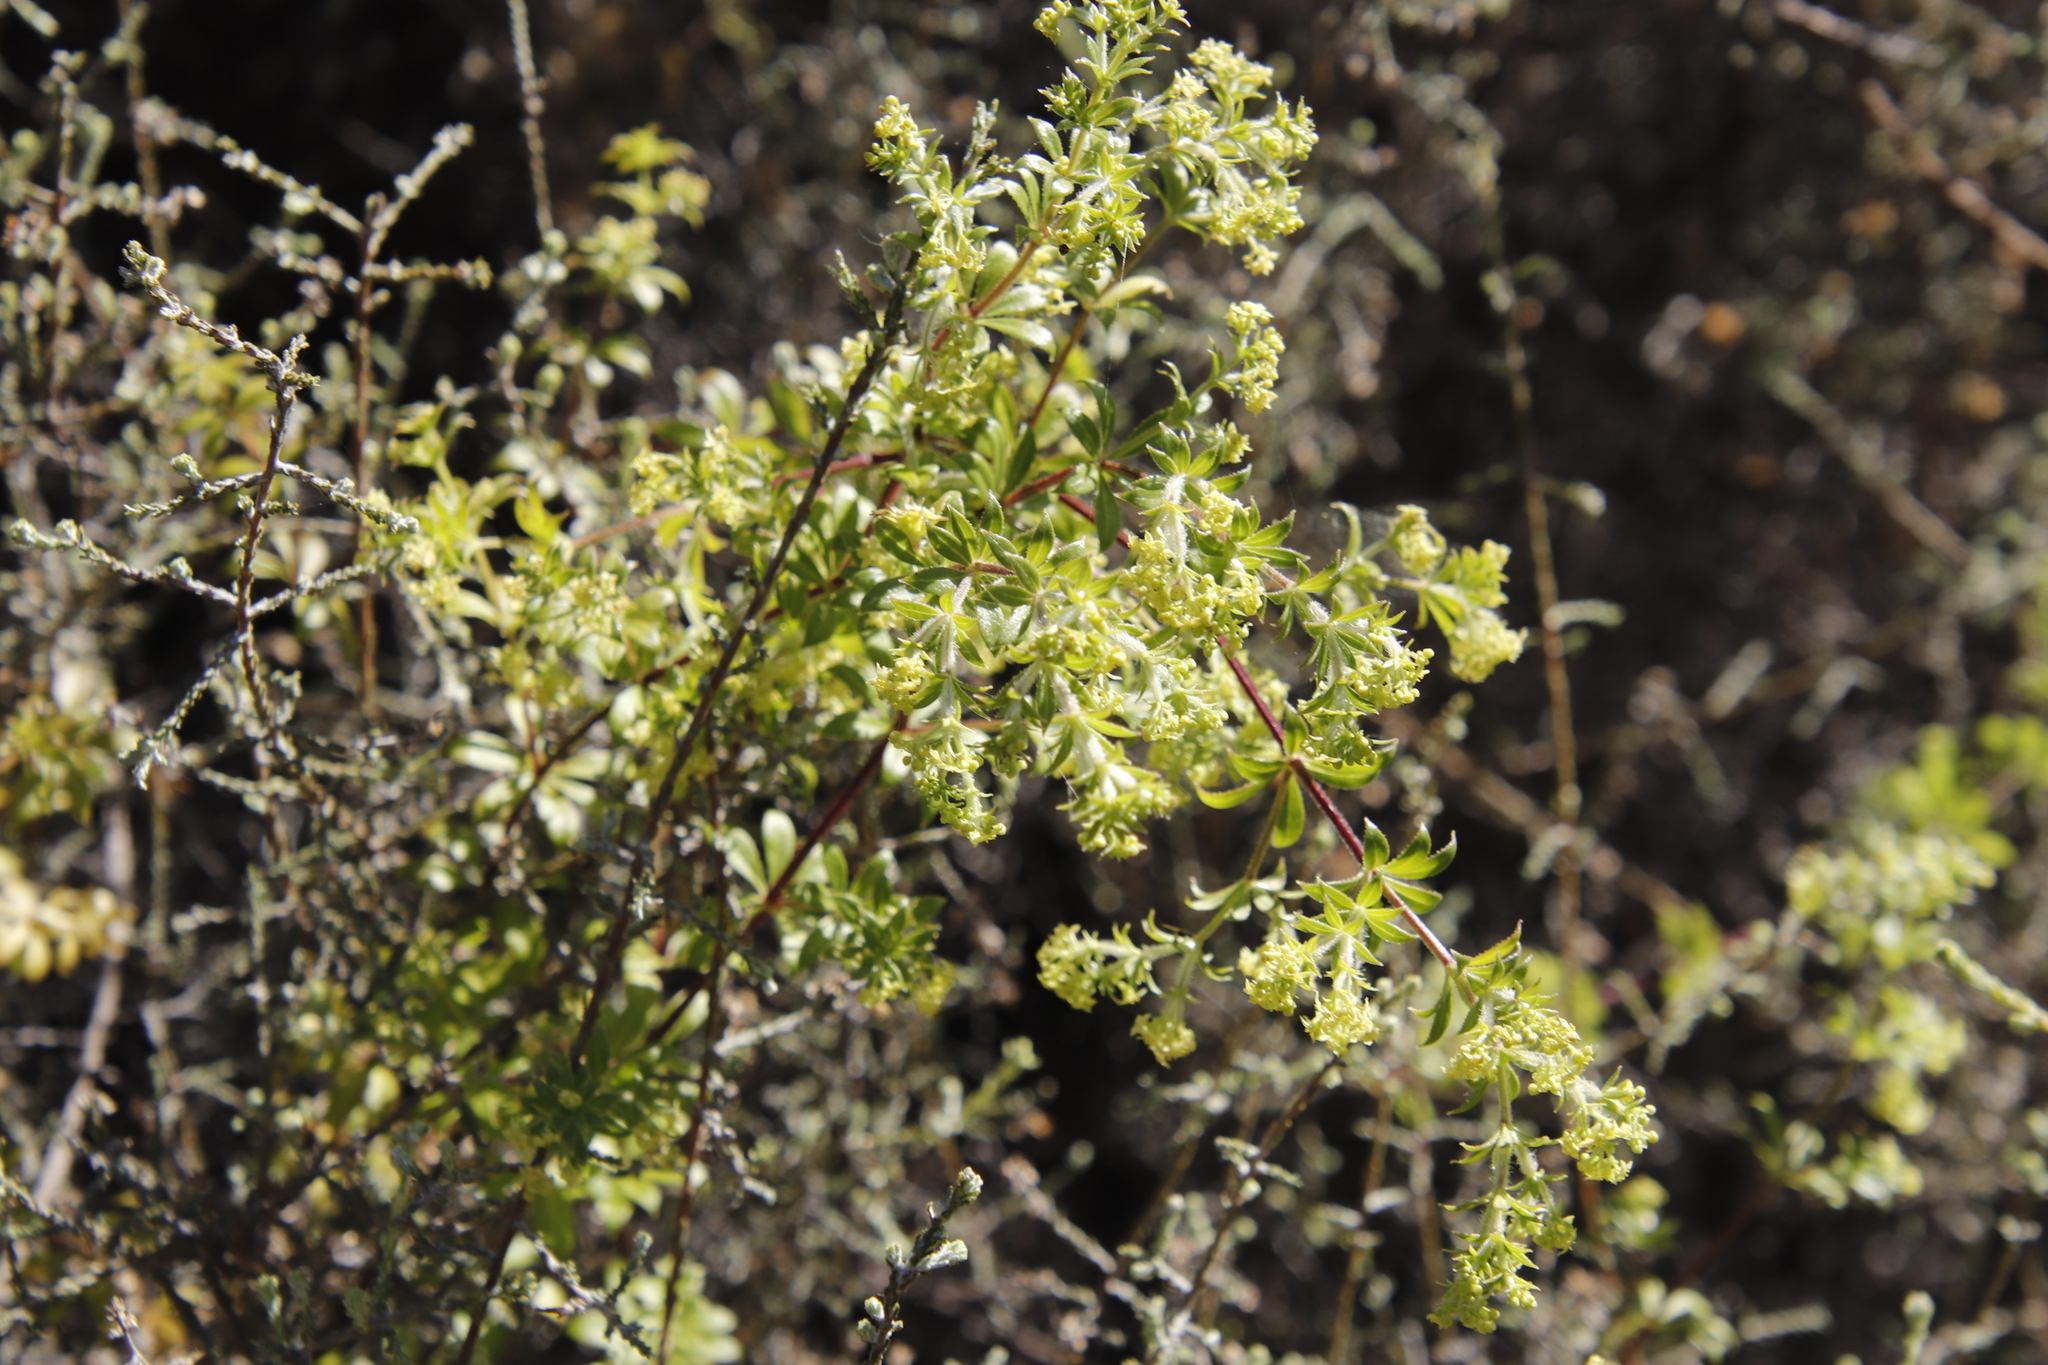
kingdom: Plantae
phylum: Tracheophyta
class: Magnoliopsida
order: Gentianales
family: Rubiaceae
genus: Galium
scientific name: Galium tomentosum
